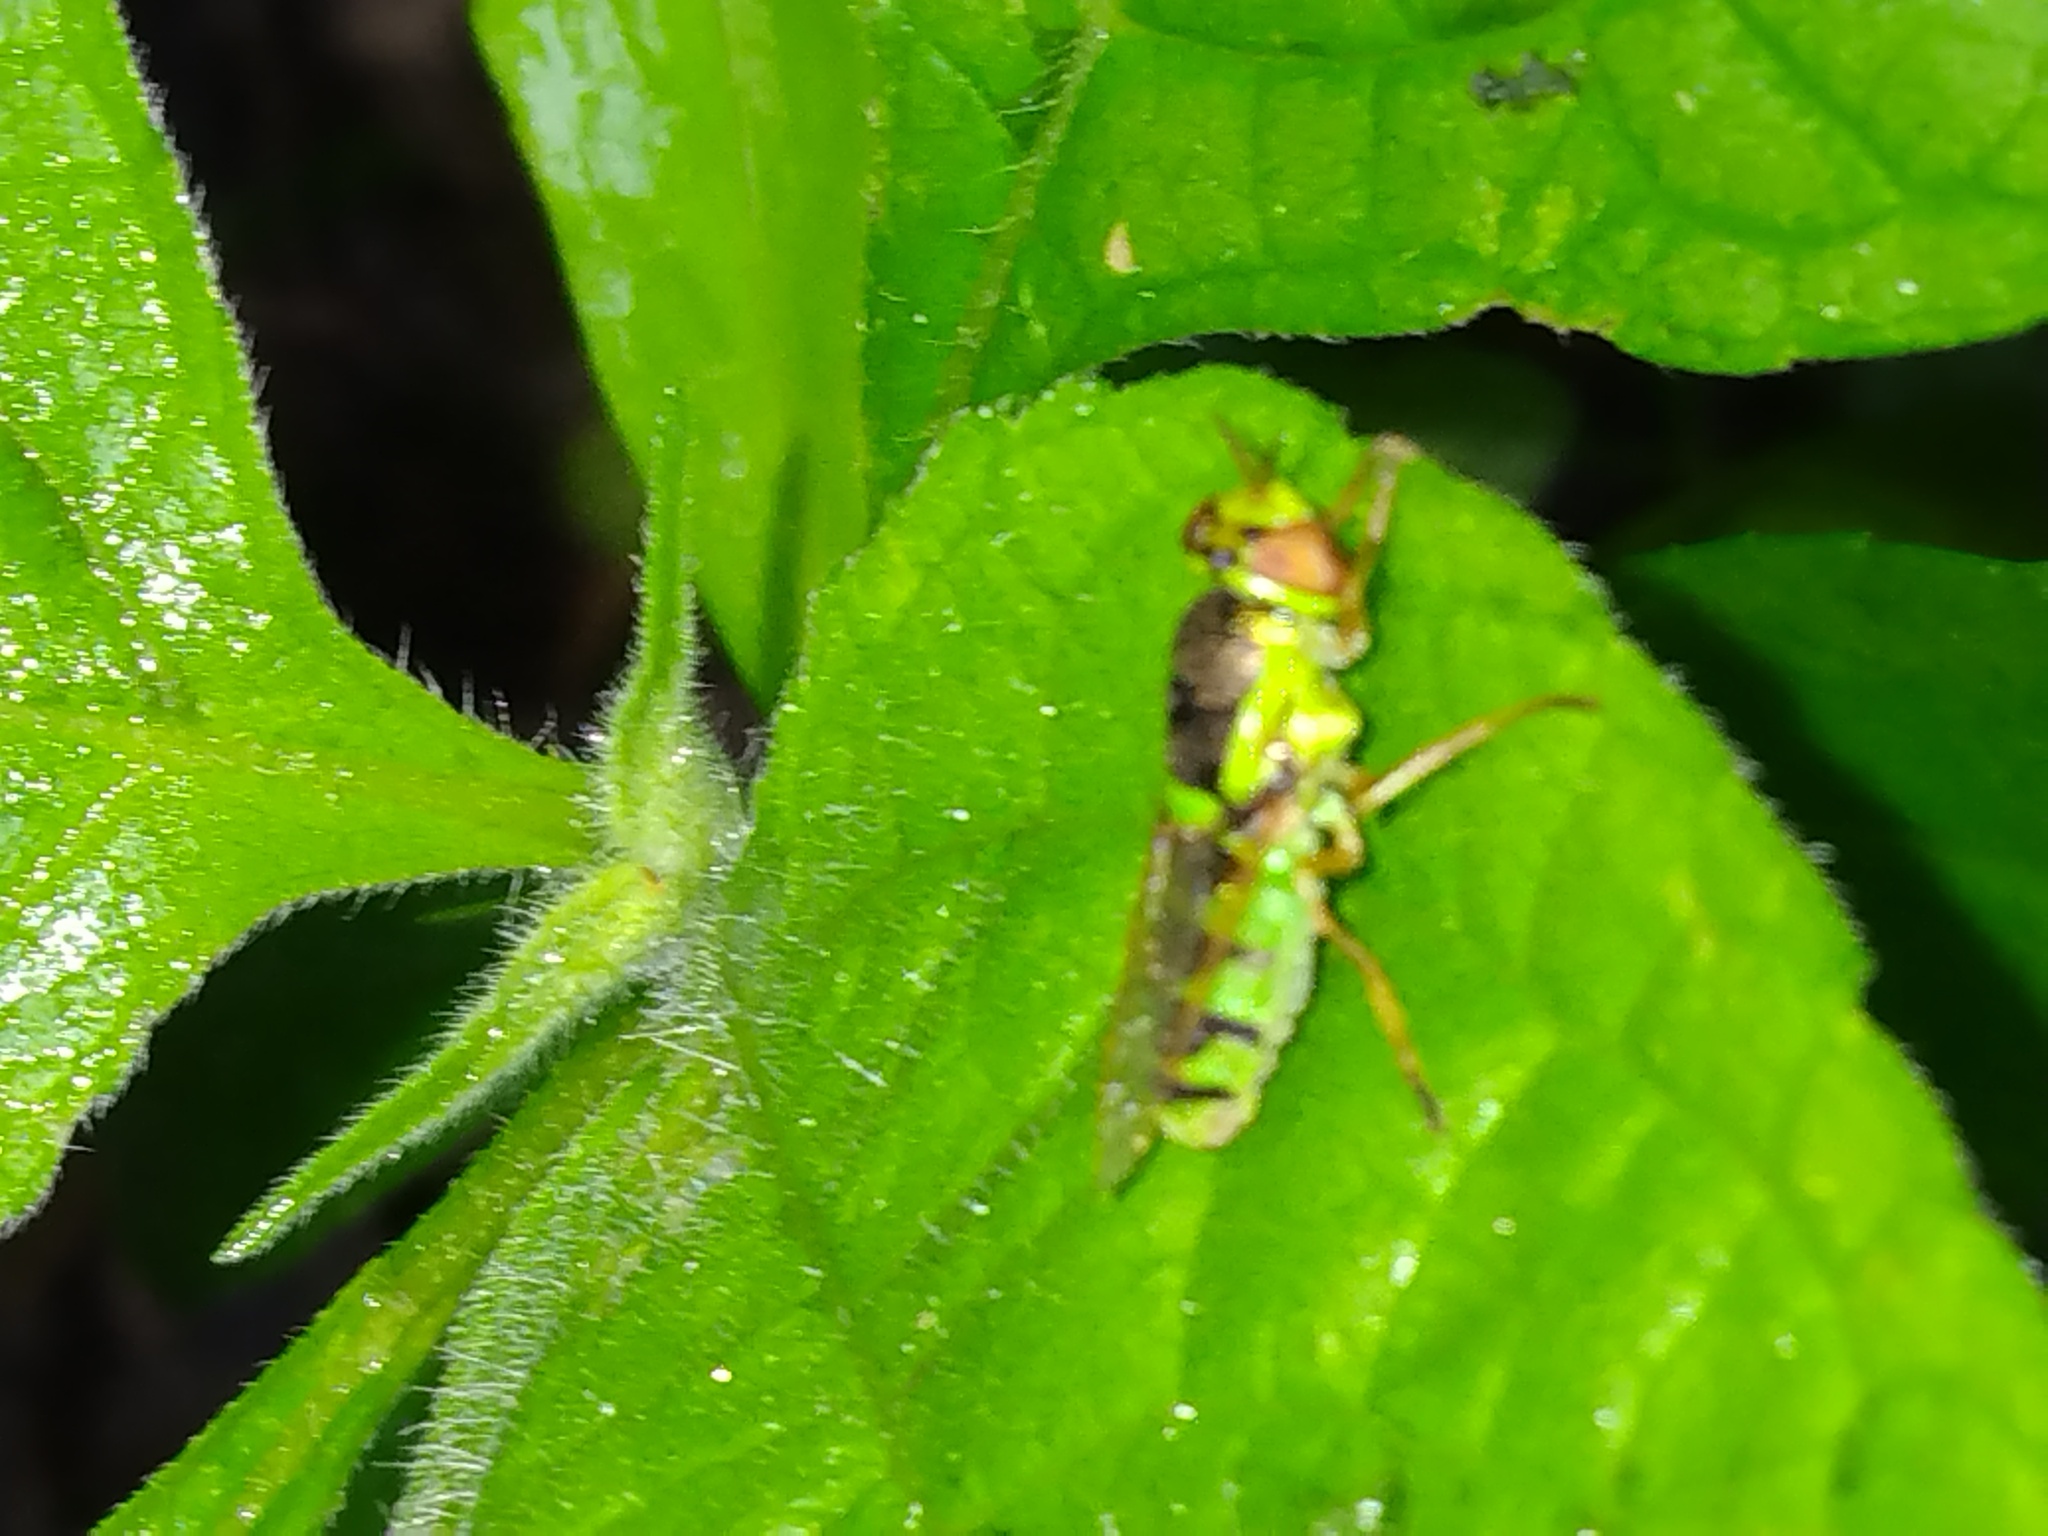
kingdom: Animalia
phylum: Arthropoda
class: Insecta
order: Diptera
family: Stratiomyidae
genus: Odontomyia
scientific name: Odontomyia cincta
